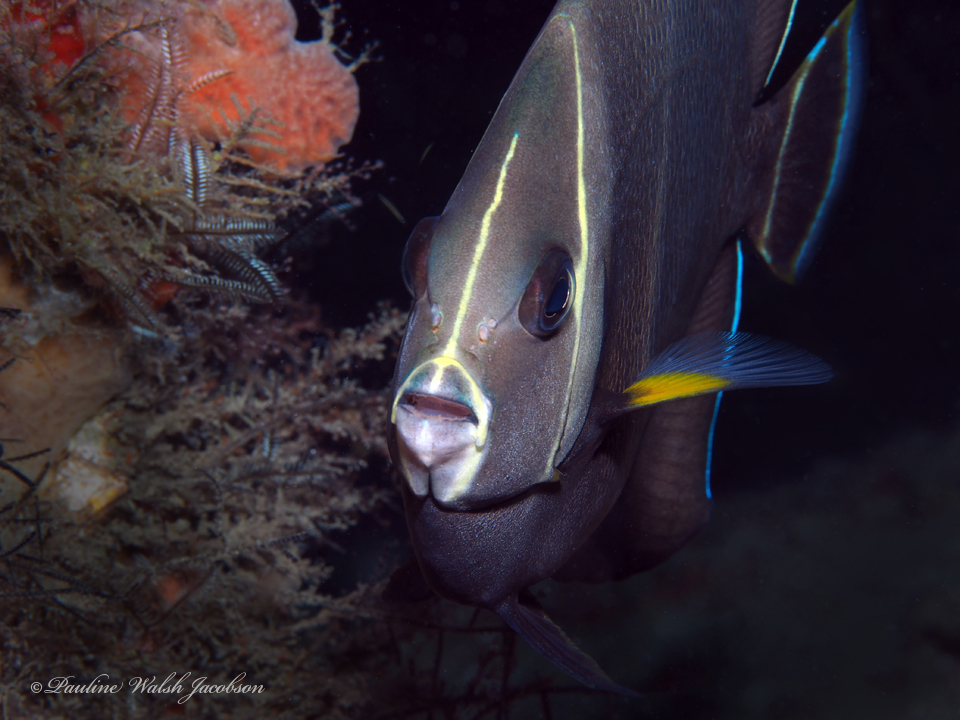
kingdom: Animalia
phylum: Chordata
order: Perciformes
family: Pomacanthidae
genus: Pomacanthus
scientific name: Pomacanthus arcuatus
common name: Gray angelfish
